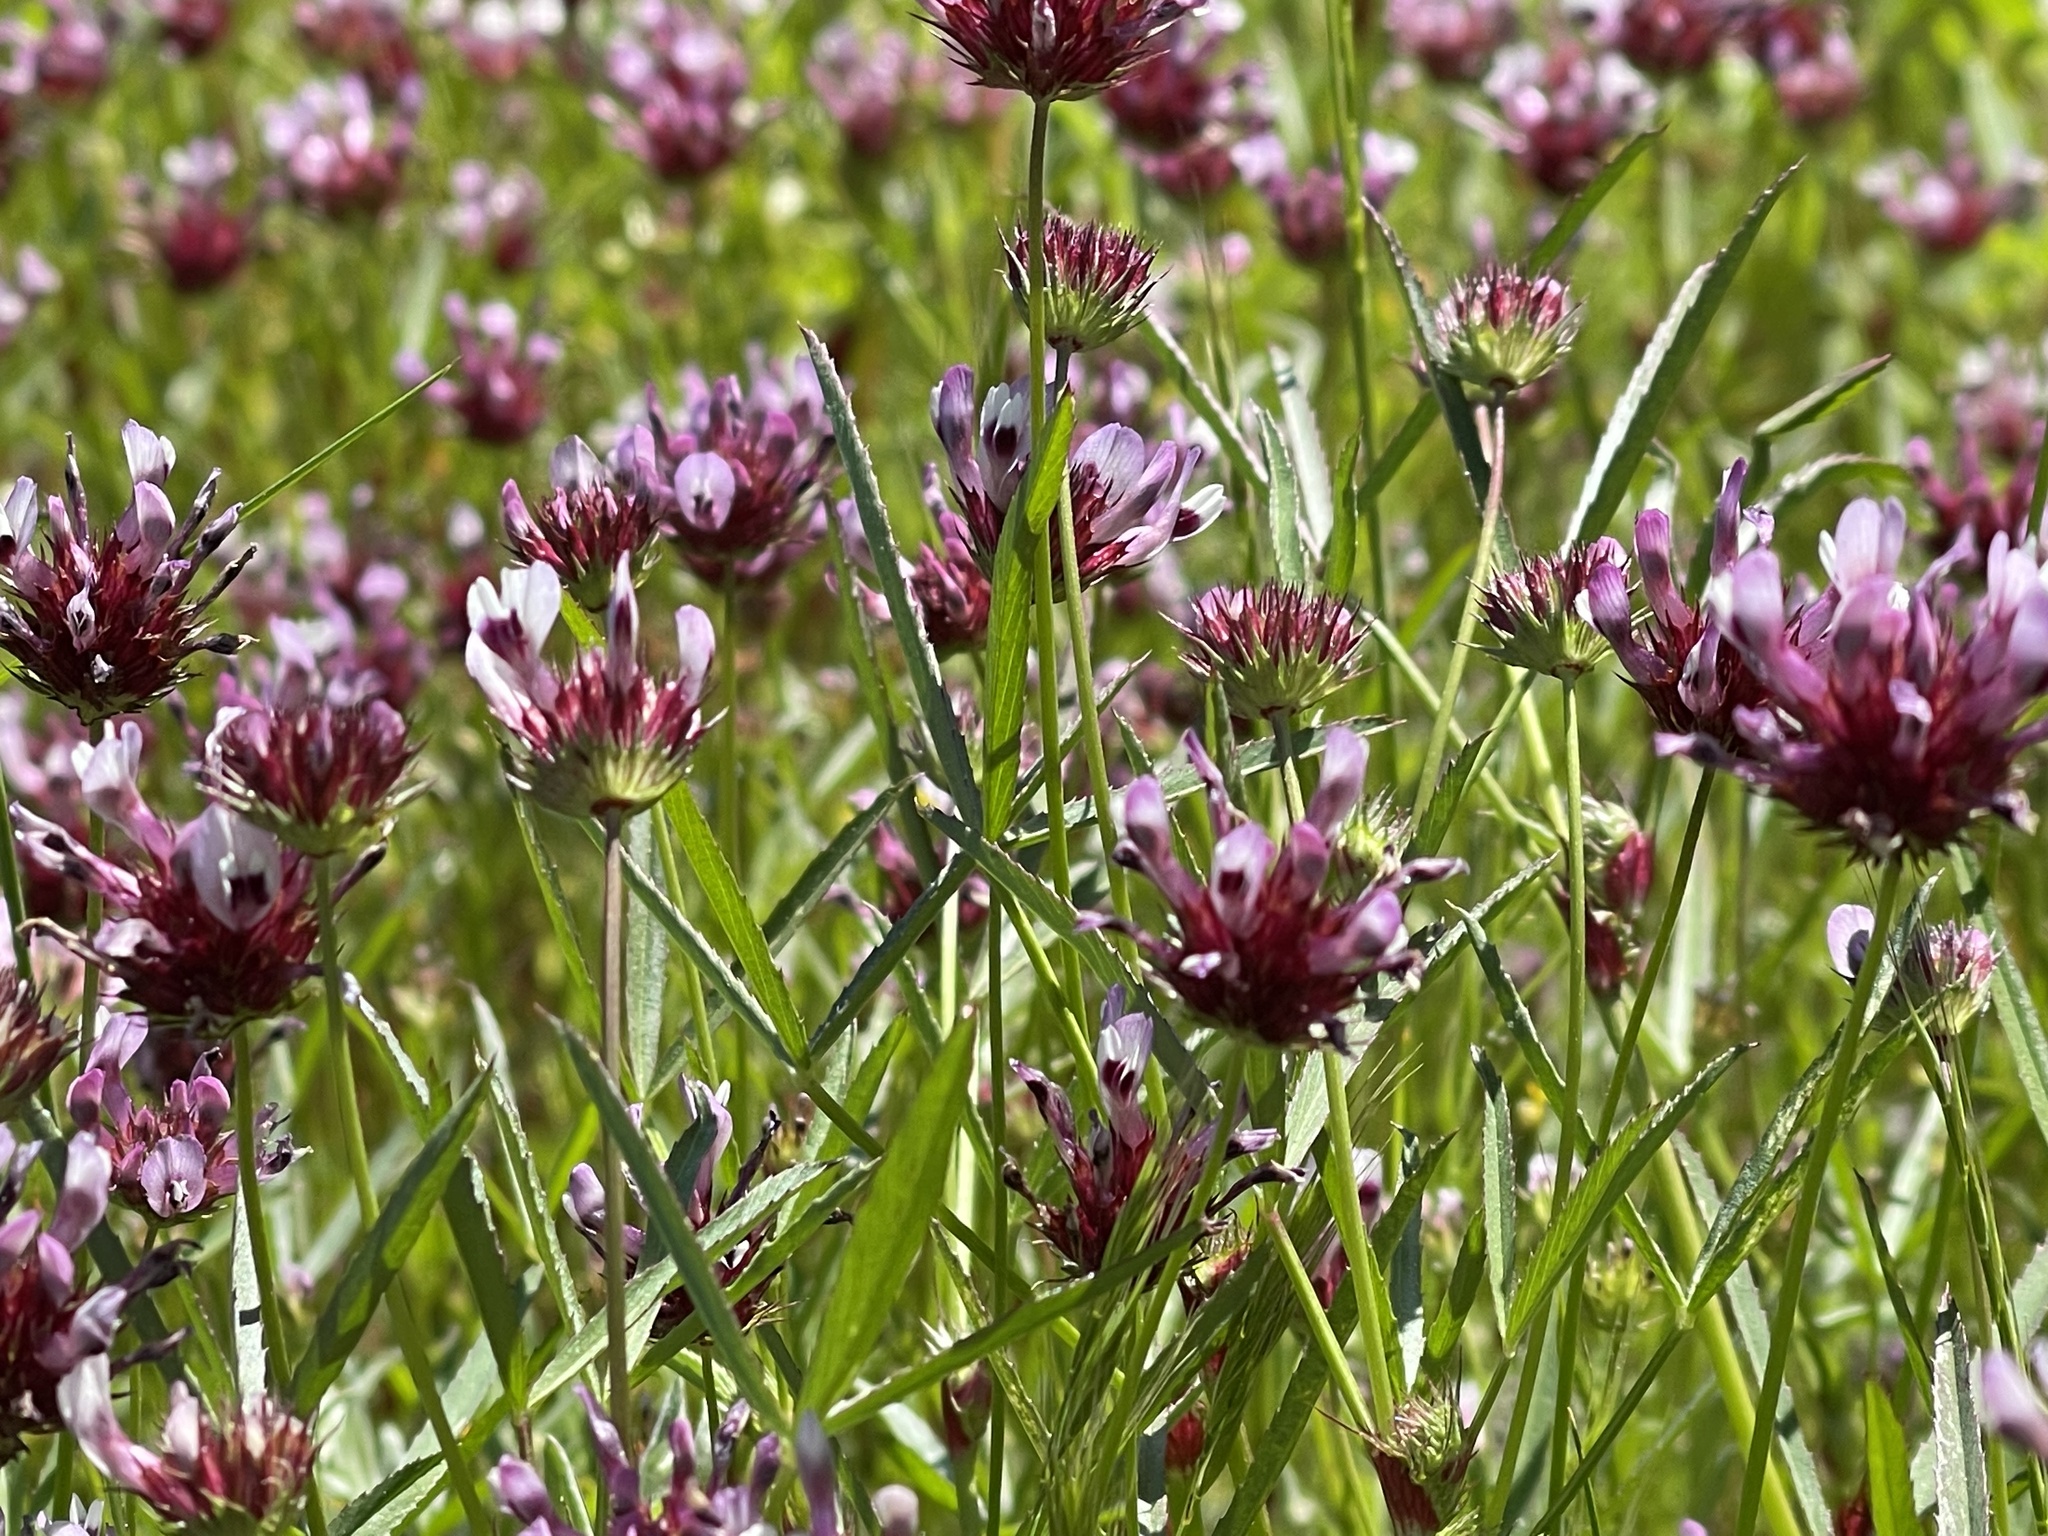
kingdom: Plantae
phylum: Tracheophyta
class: Magnoliopsida
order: Fabales
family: Fabaceae
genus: Trifolium
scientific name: Trifolium willdenovii
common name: Tomcat clover
